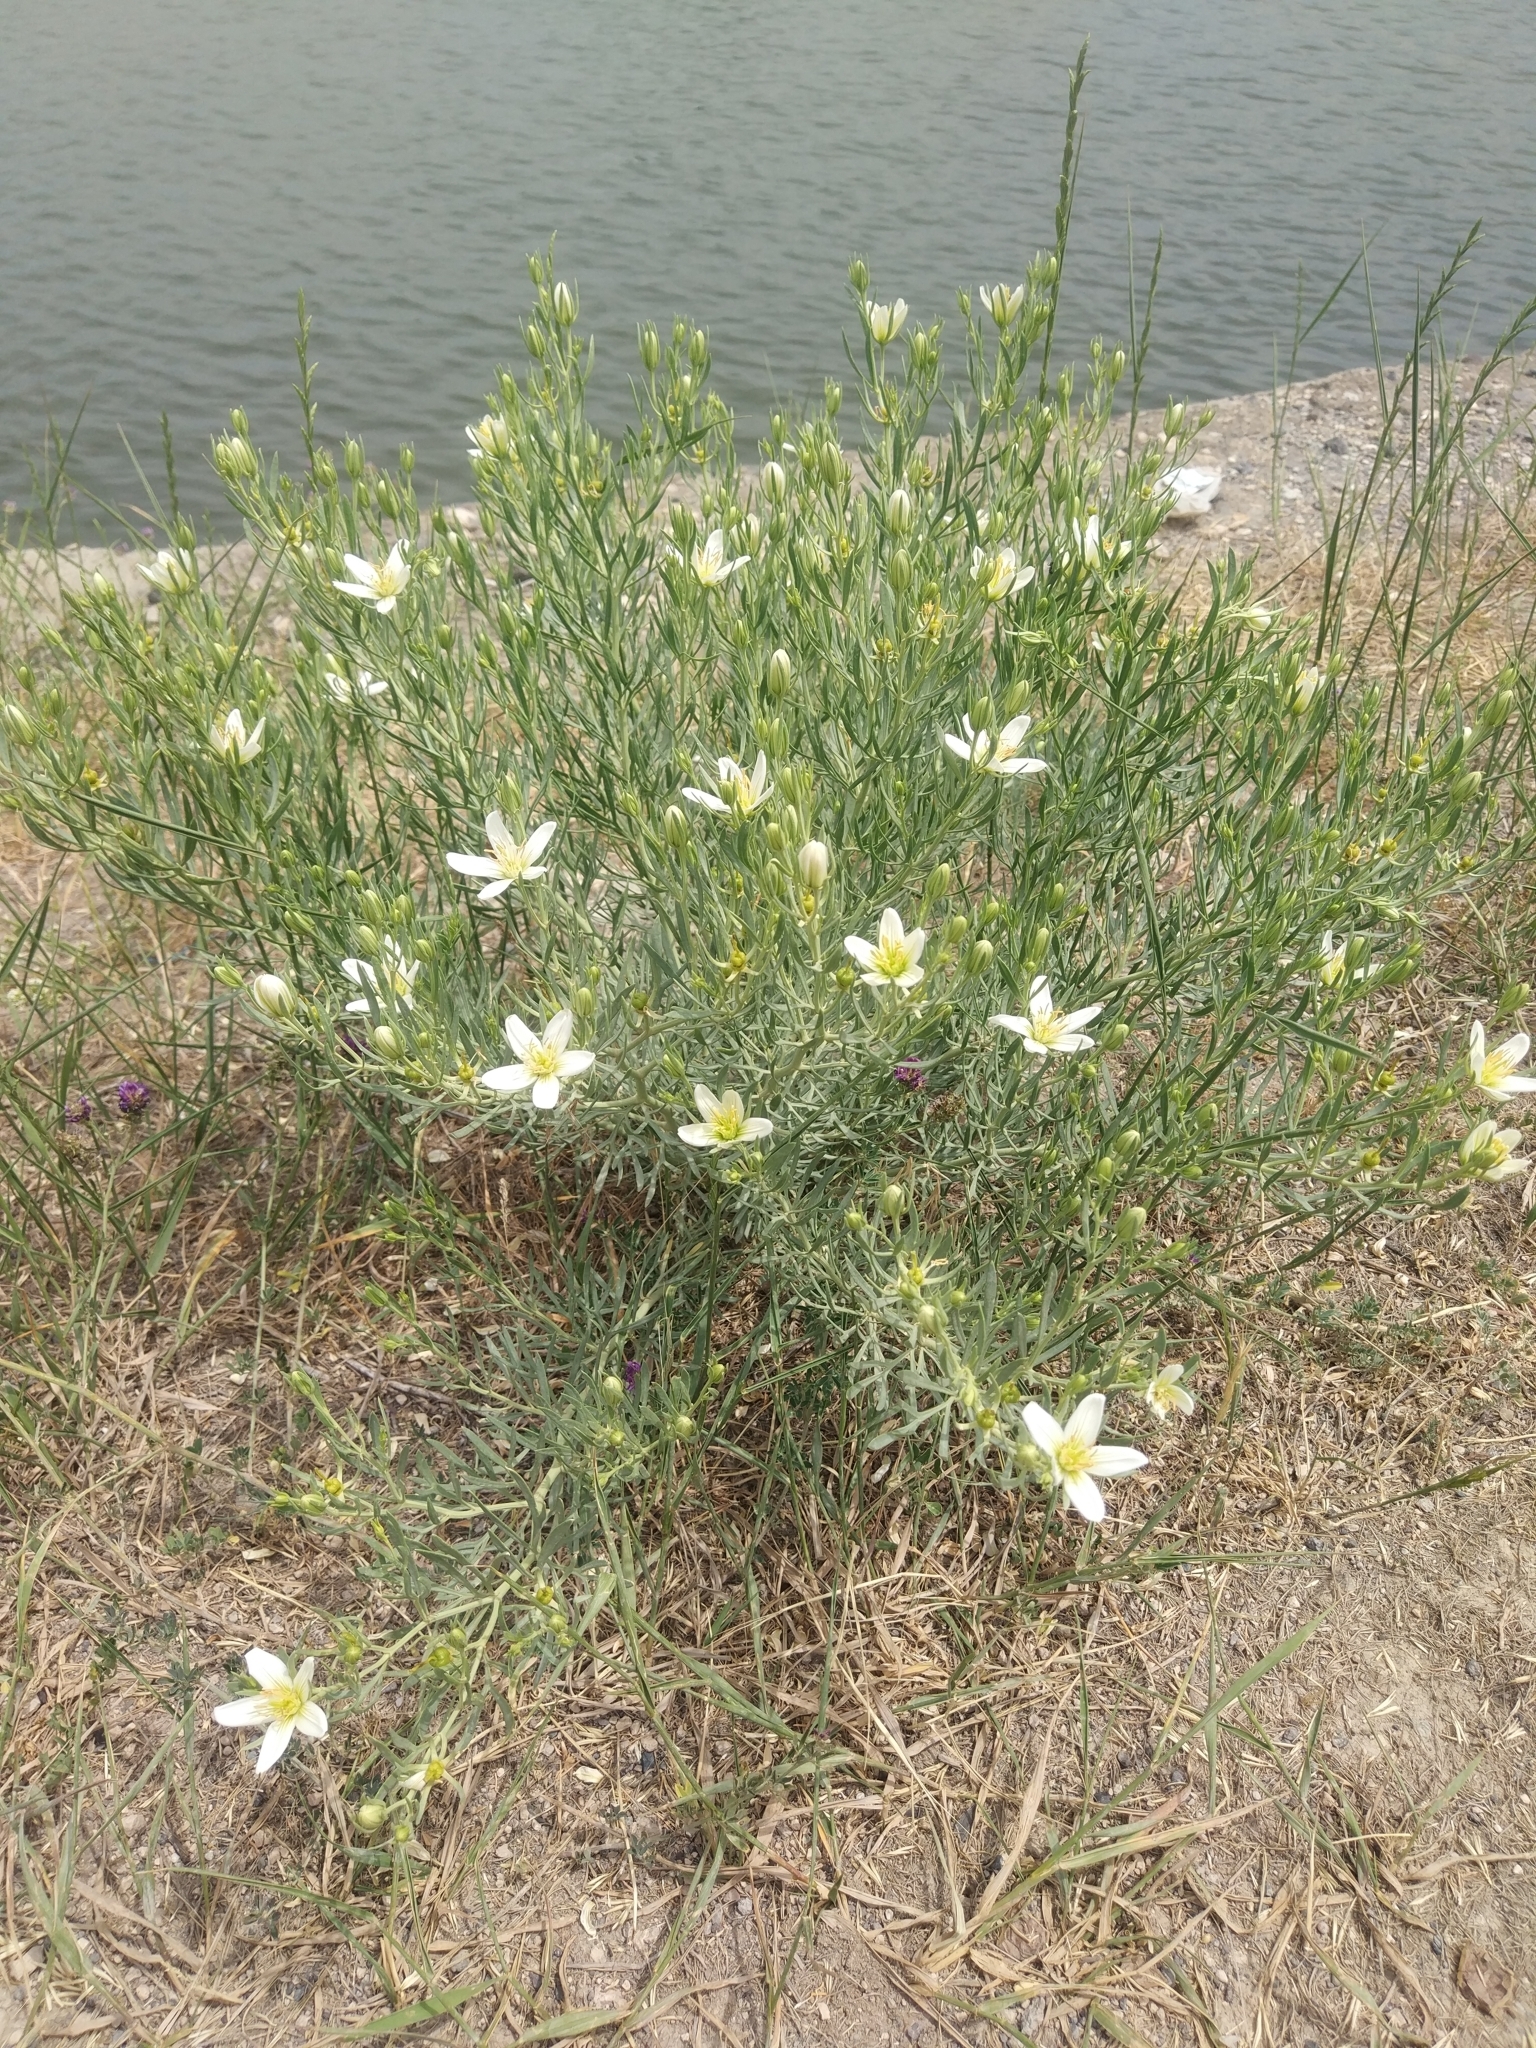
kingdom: Plantae
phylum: Tracheophyta
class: Magnoliopsida
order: Sapindales
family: Tetradiclidaceae
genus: Peganum
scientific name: Peganum harmala
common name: Harmal peganum
